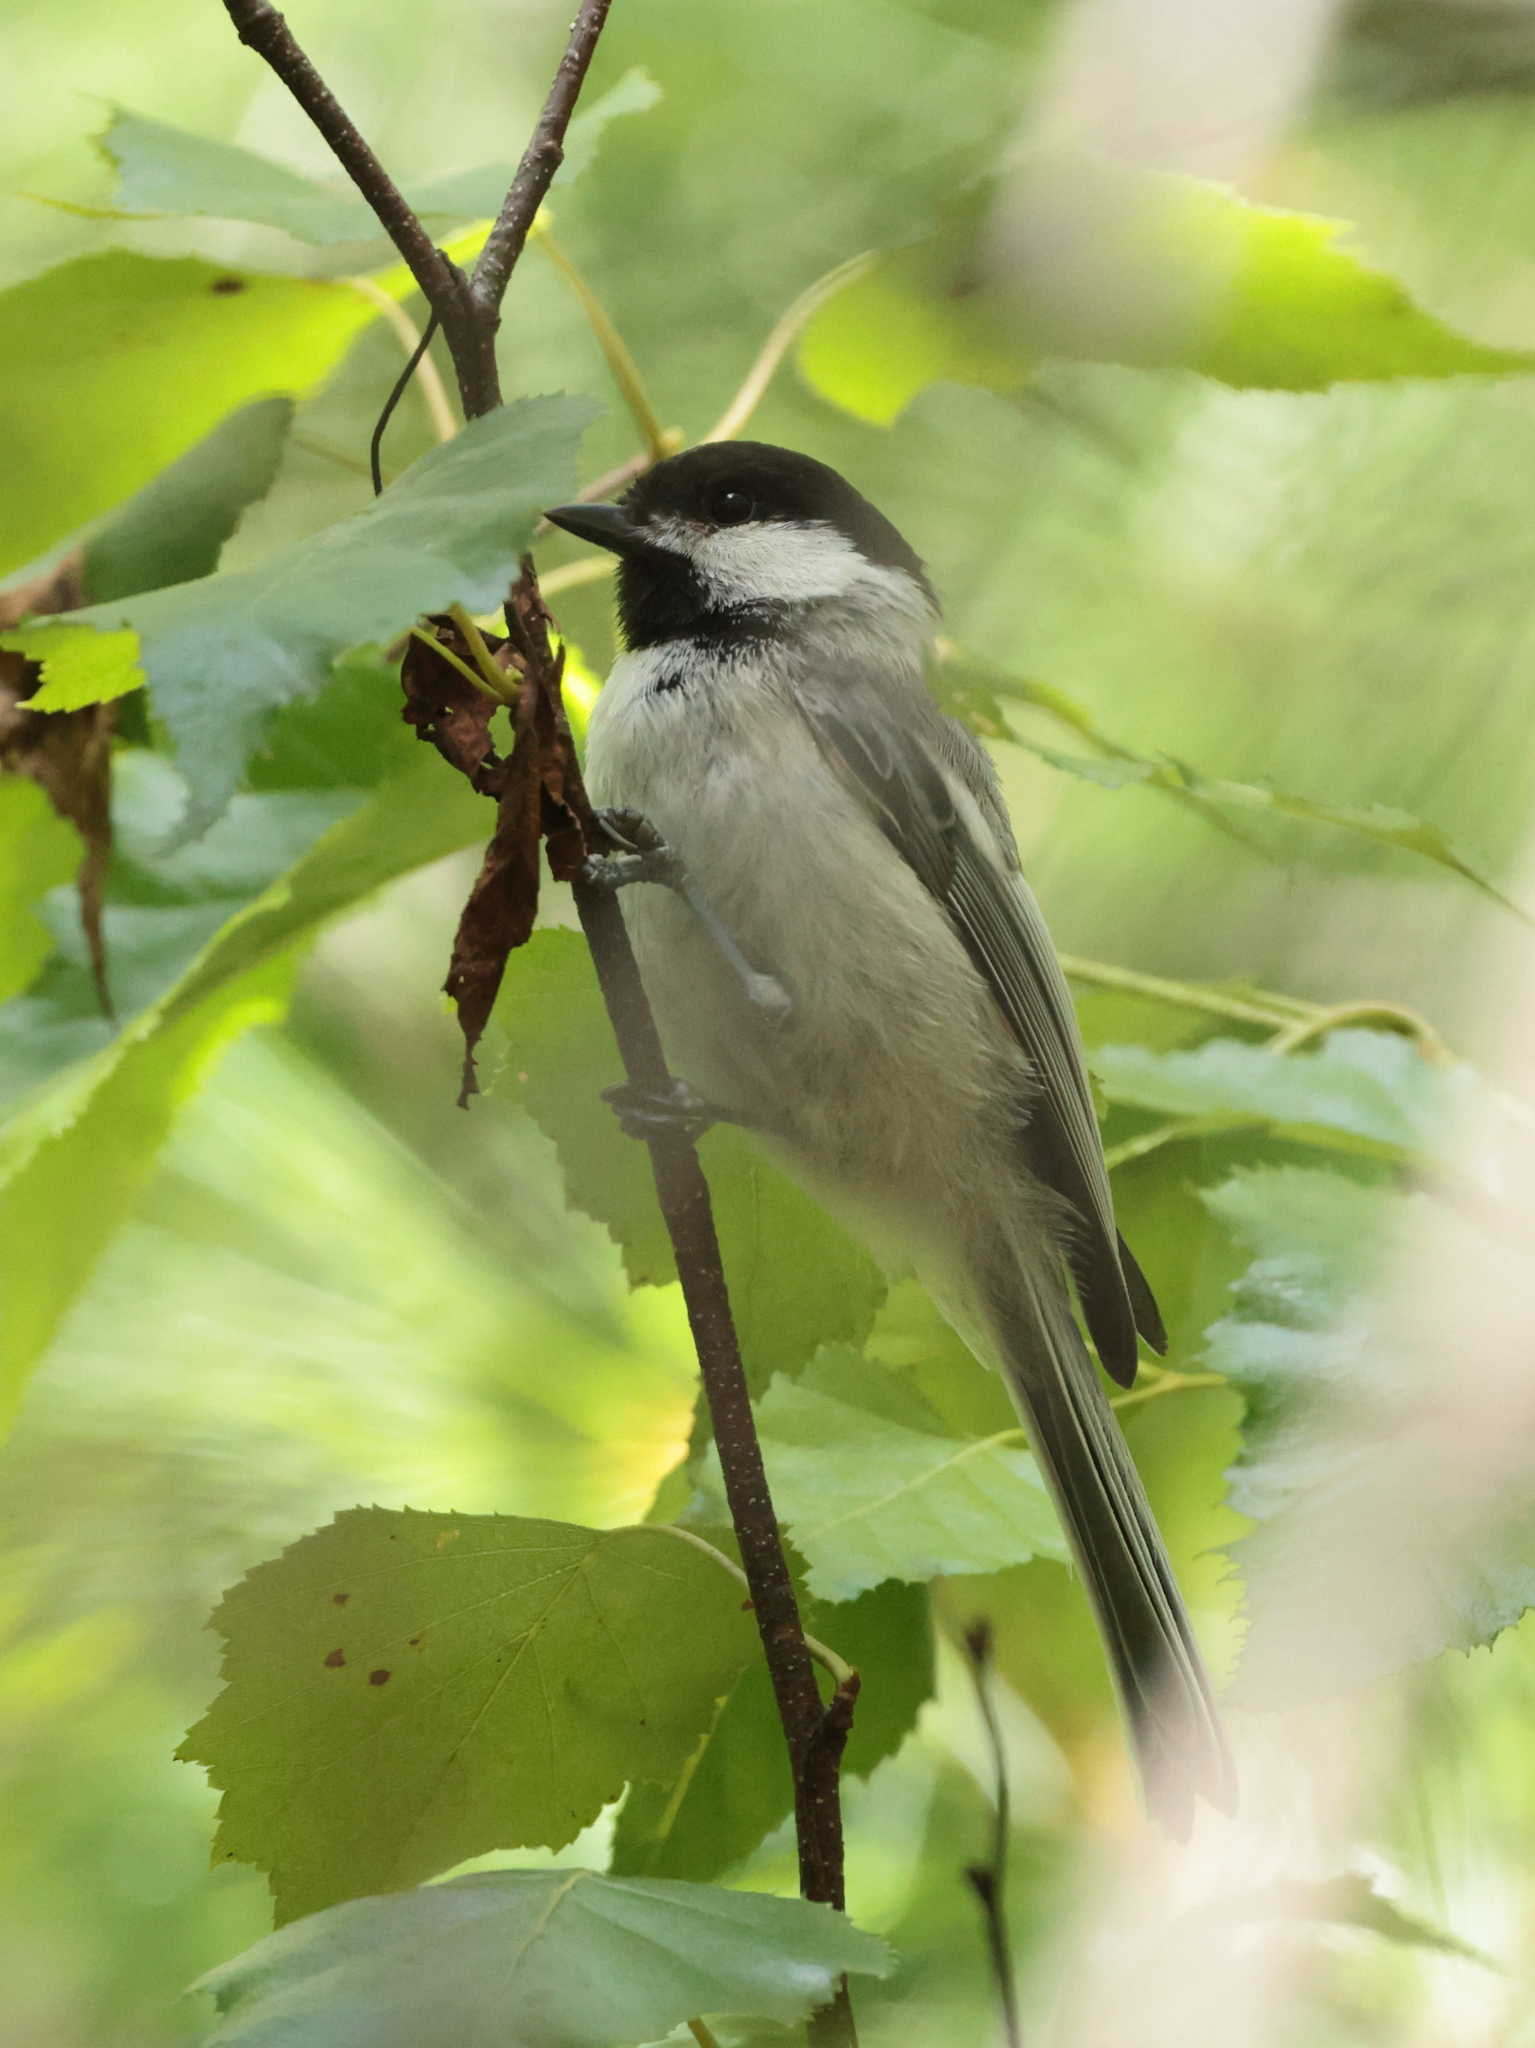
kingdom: Animalia
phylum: Chordata
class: Aves
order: Passeriformes
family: Paridae
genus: Poecile
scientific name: Poecile atricapillus
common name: Black-capped chickadee
